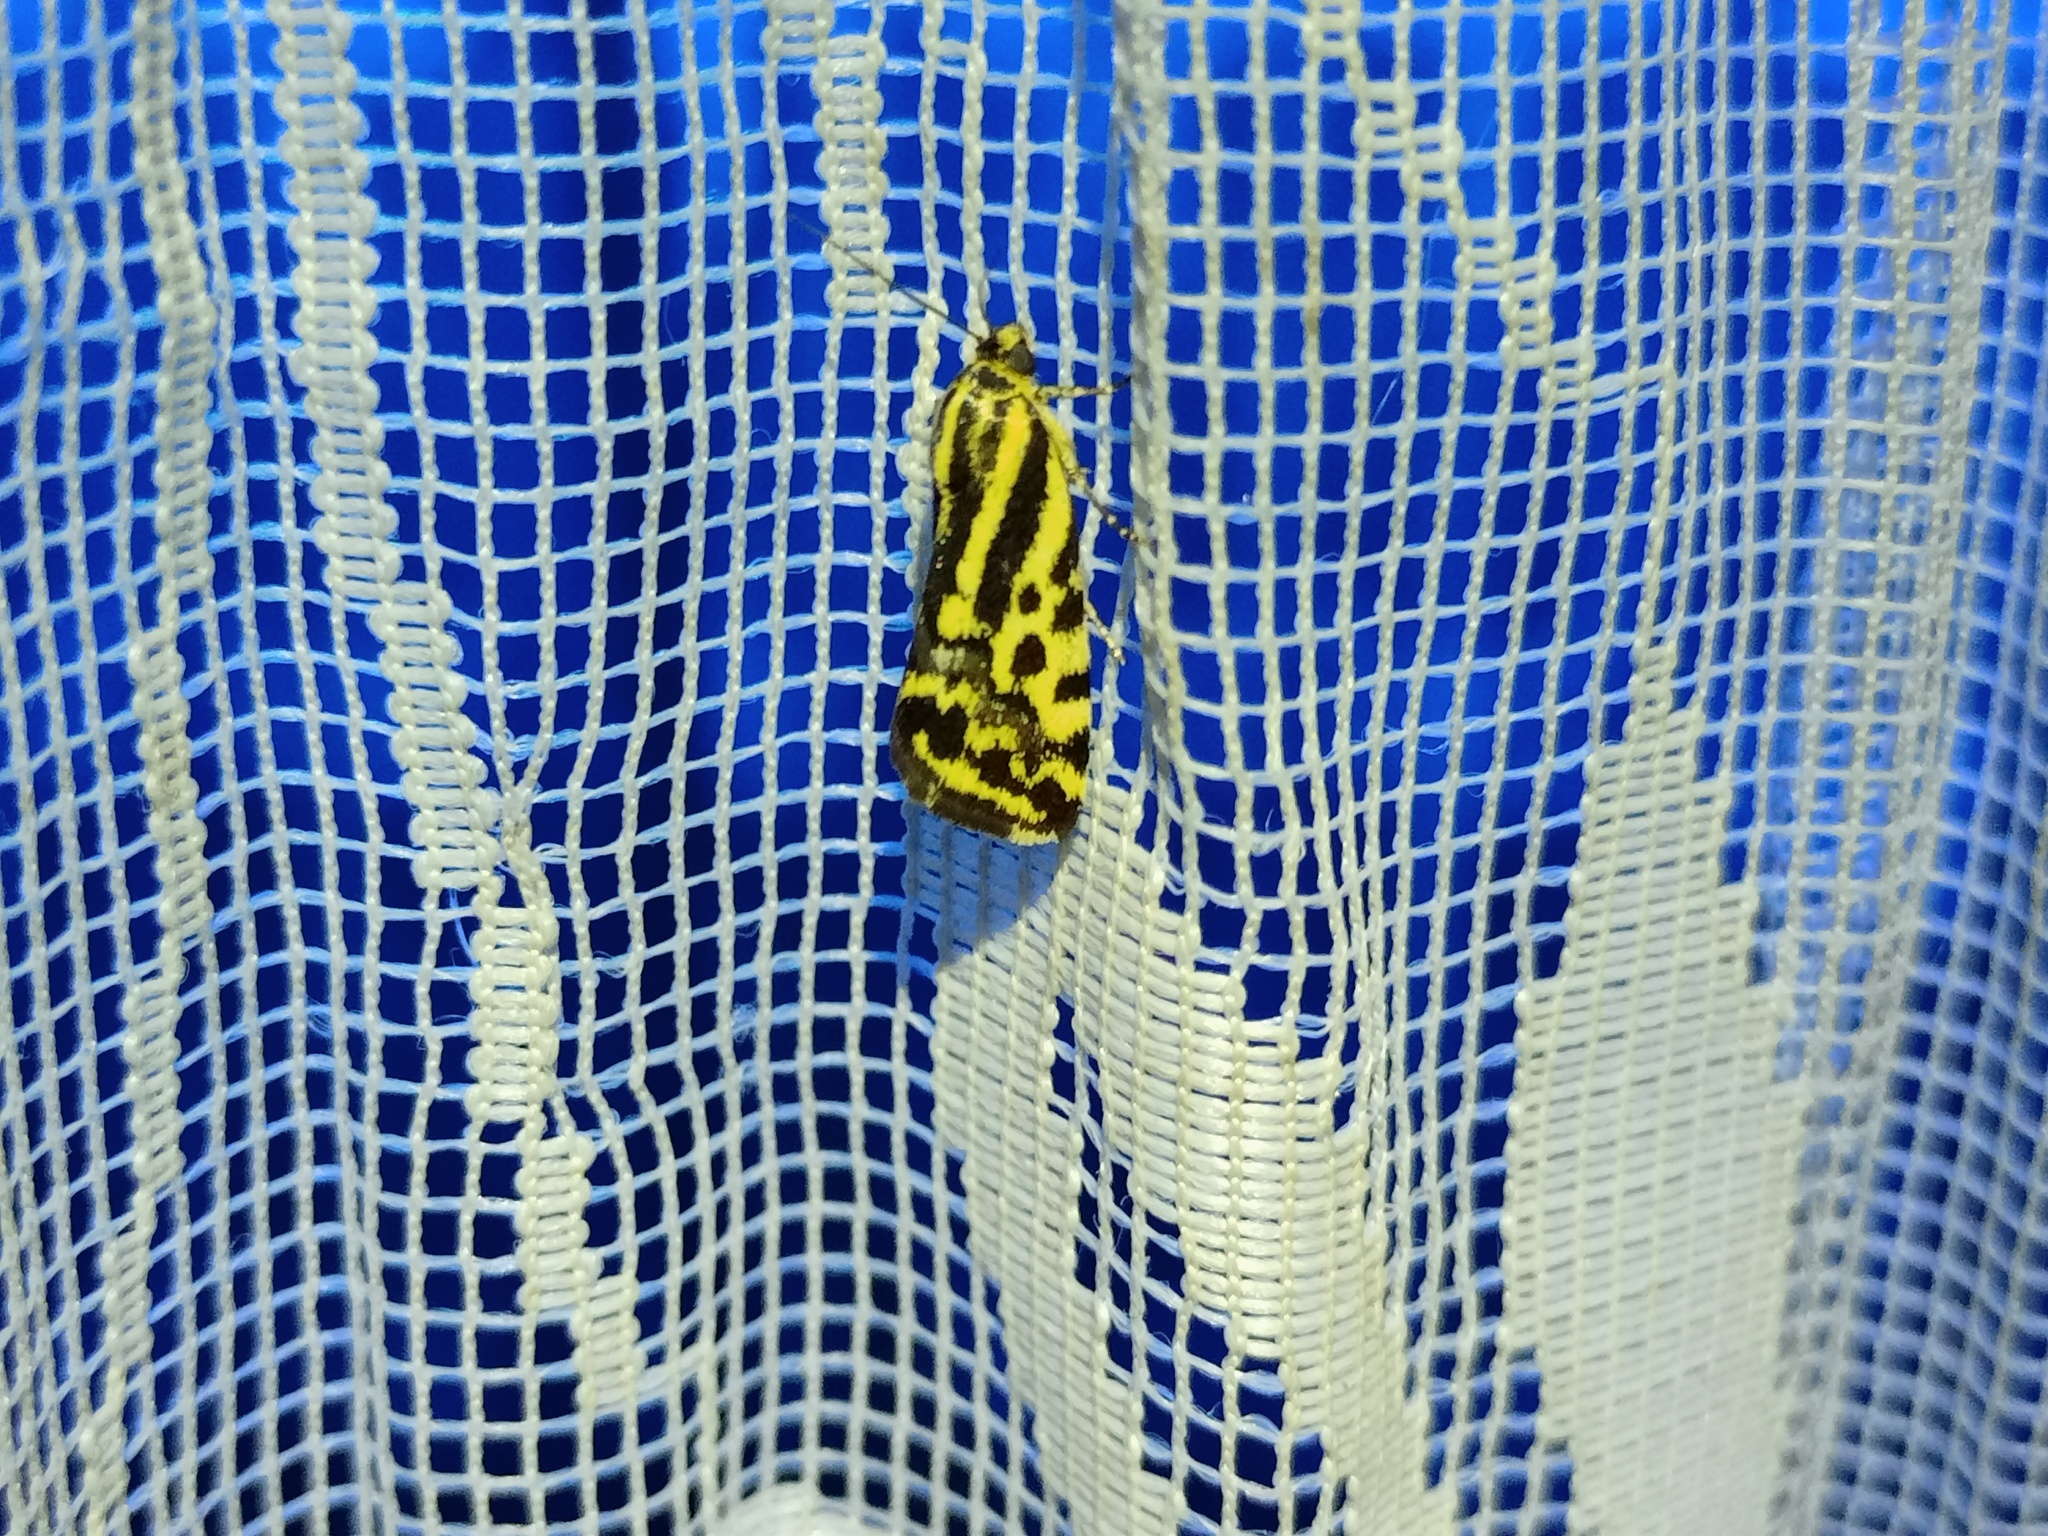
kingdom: Animalia
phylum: Arthropoda
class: Insecta
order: Lepidoptera
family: Noctuidae
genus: Acontia
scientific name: Acontia trabealis
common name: Spotted sulphur
